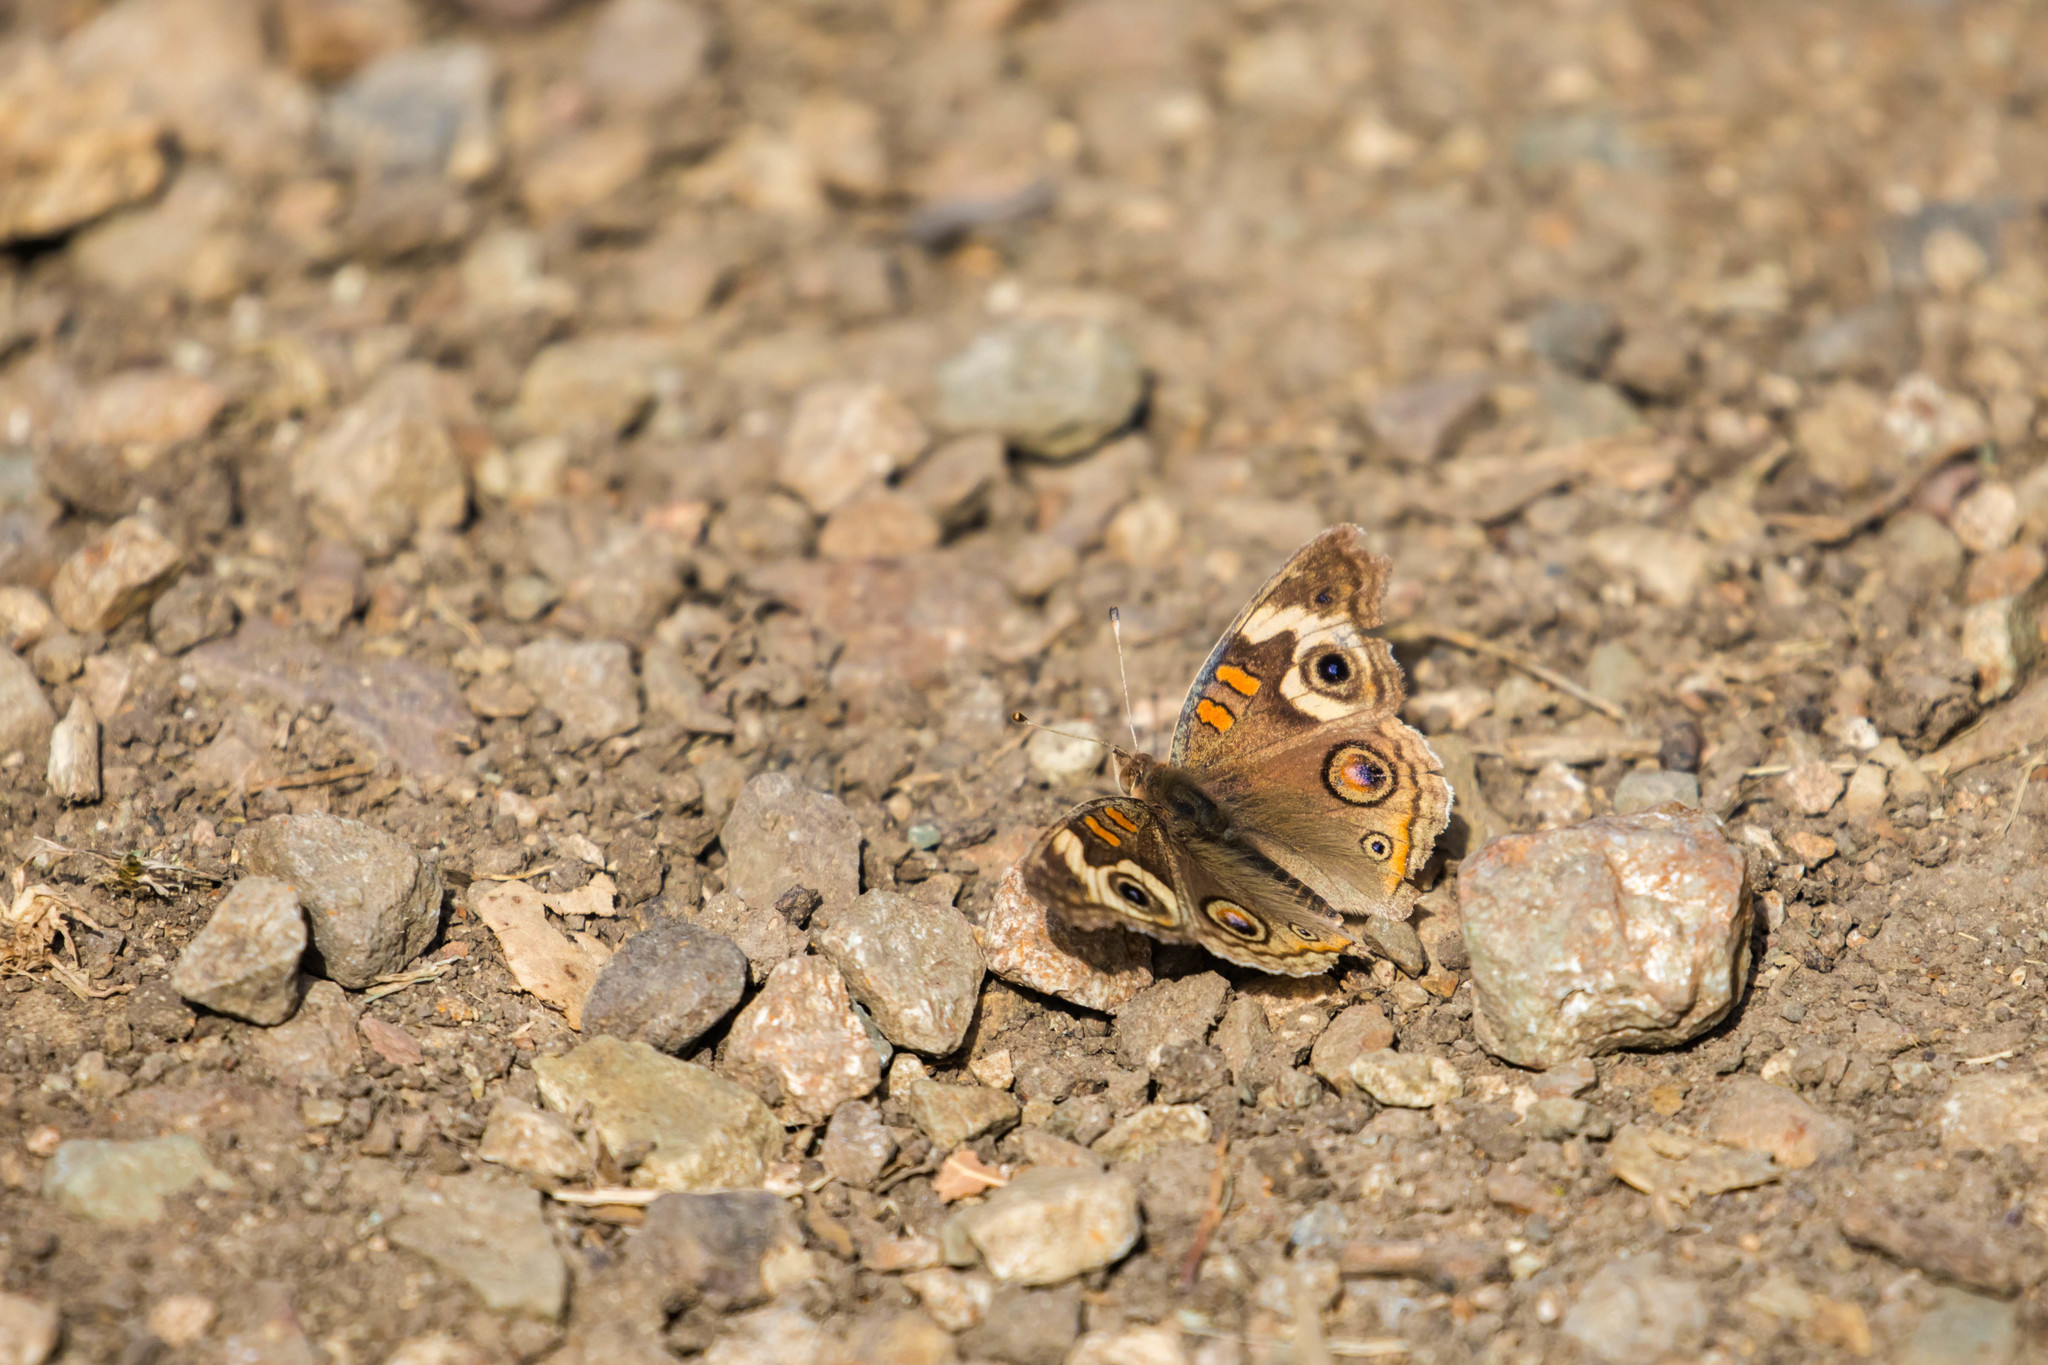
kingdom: Animalia
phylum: Arthropoda
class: Insecta
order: Lepidoptera
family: Nymphalidae
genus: Junonia
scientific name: Junonia grisea
